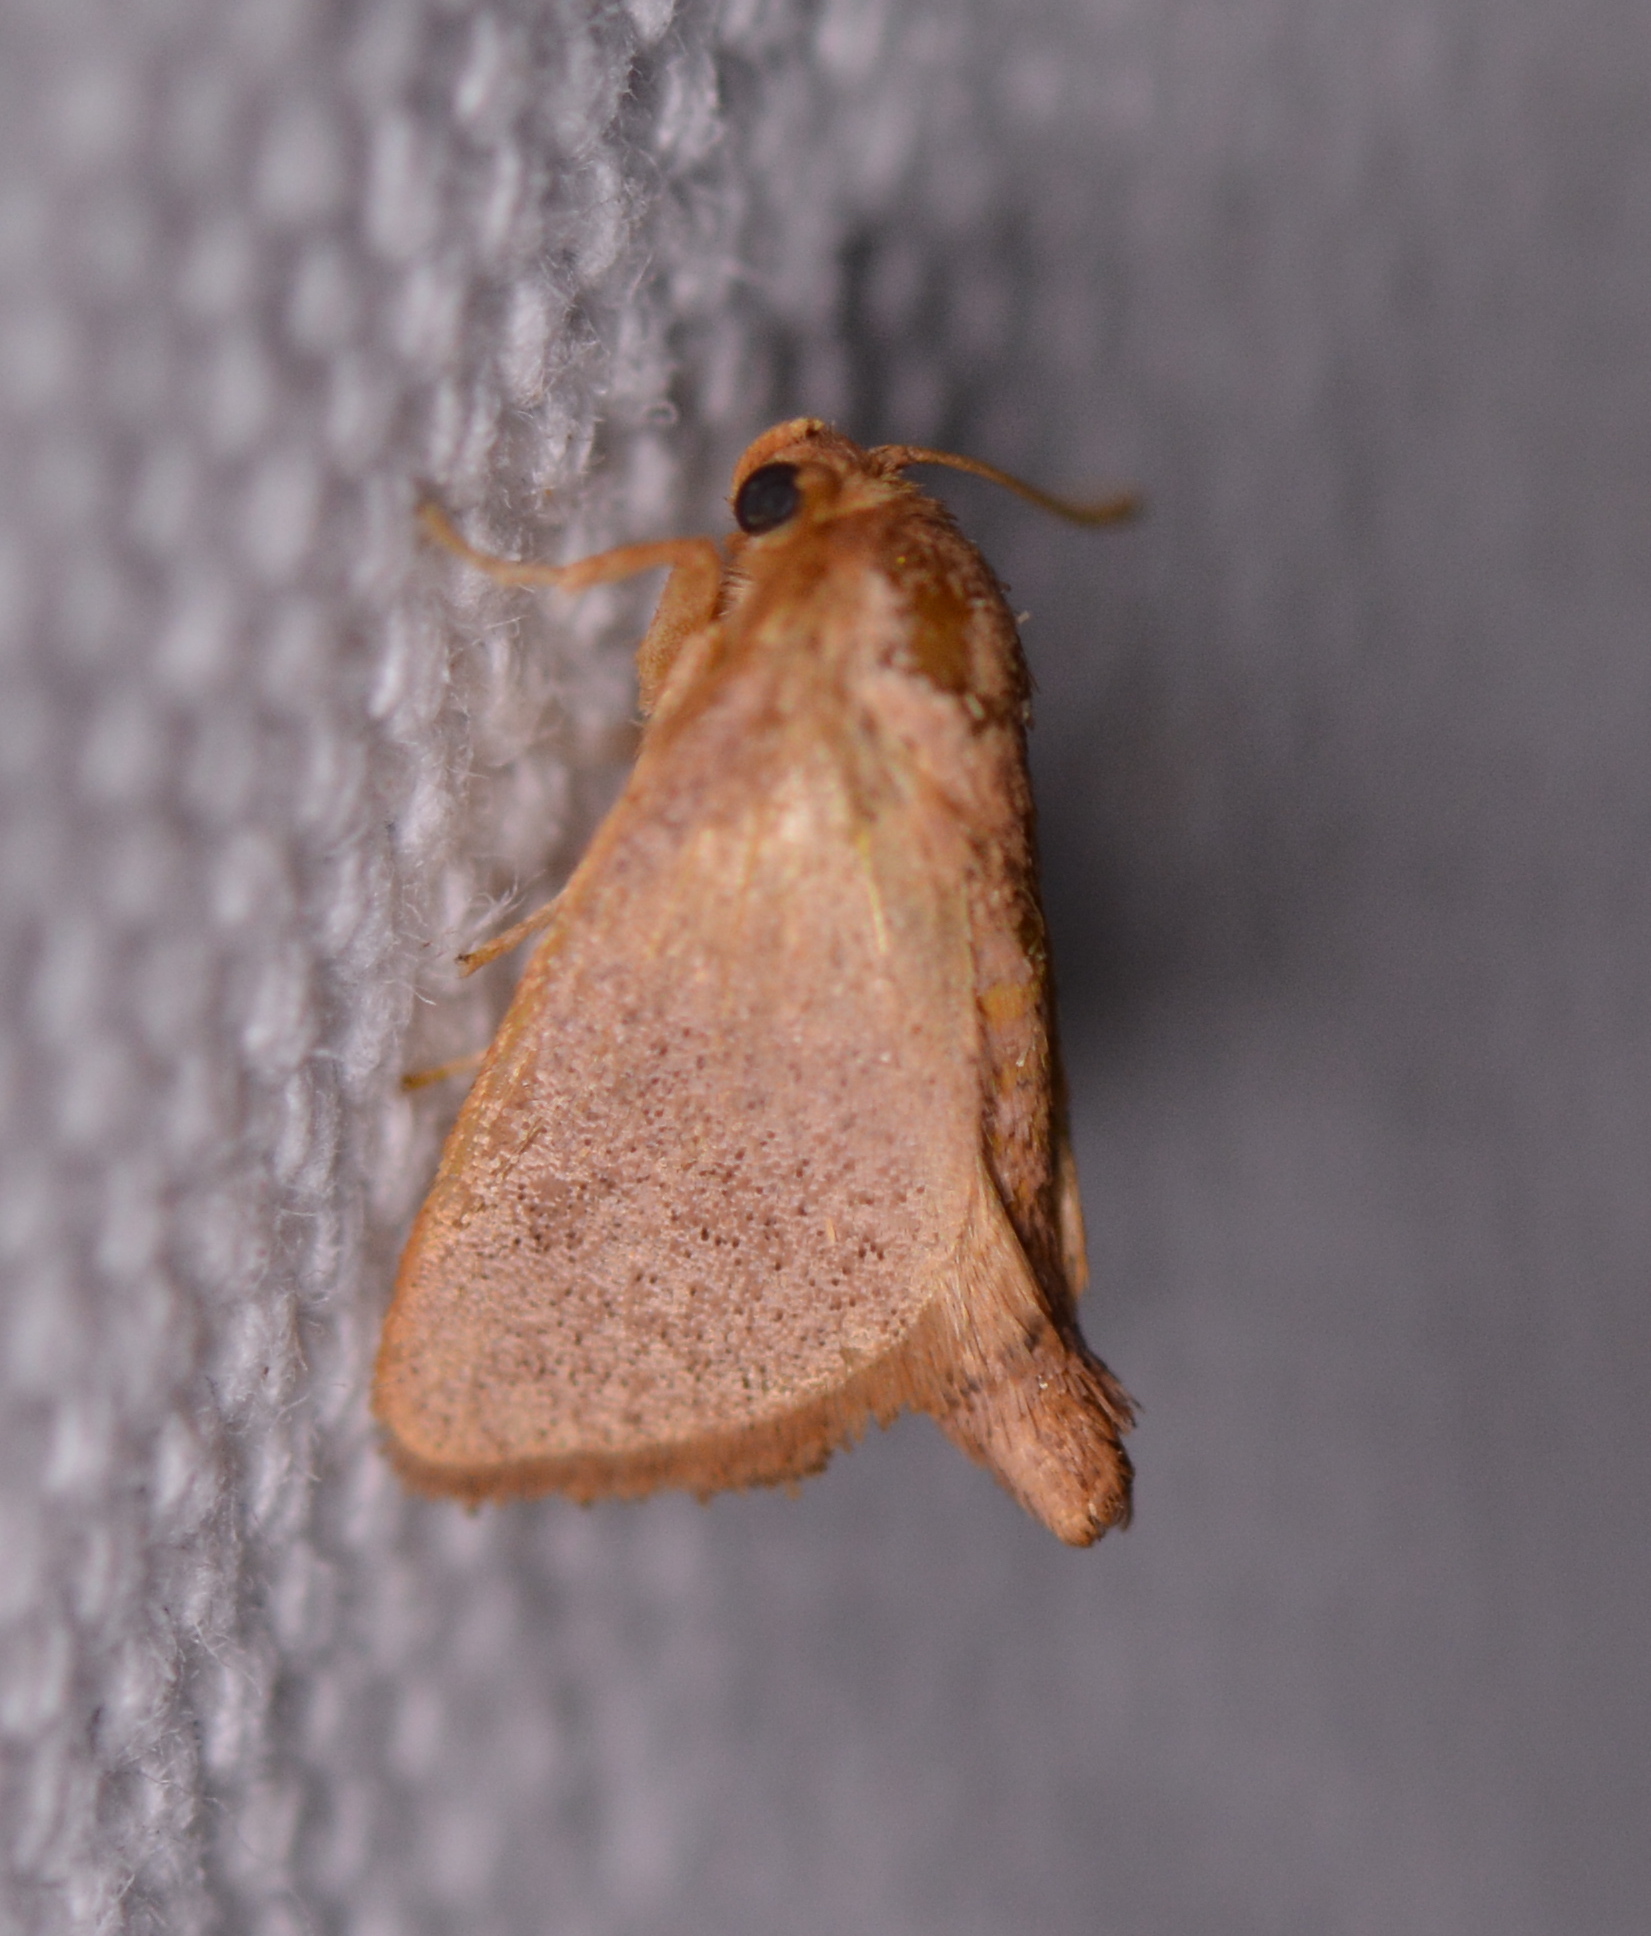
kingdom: Animalia
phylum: Arthropoda
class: Insecta
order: Lepidoptera
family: Limacodidae
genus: Tortricidia
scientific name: Tortricidia pallida
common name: Red-crossed button slug moth
